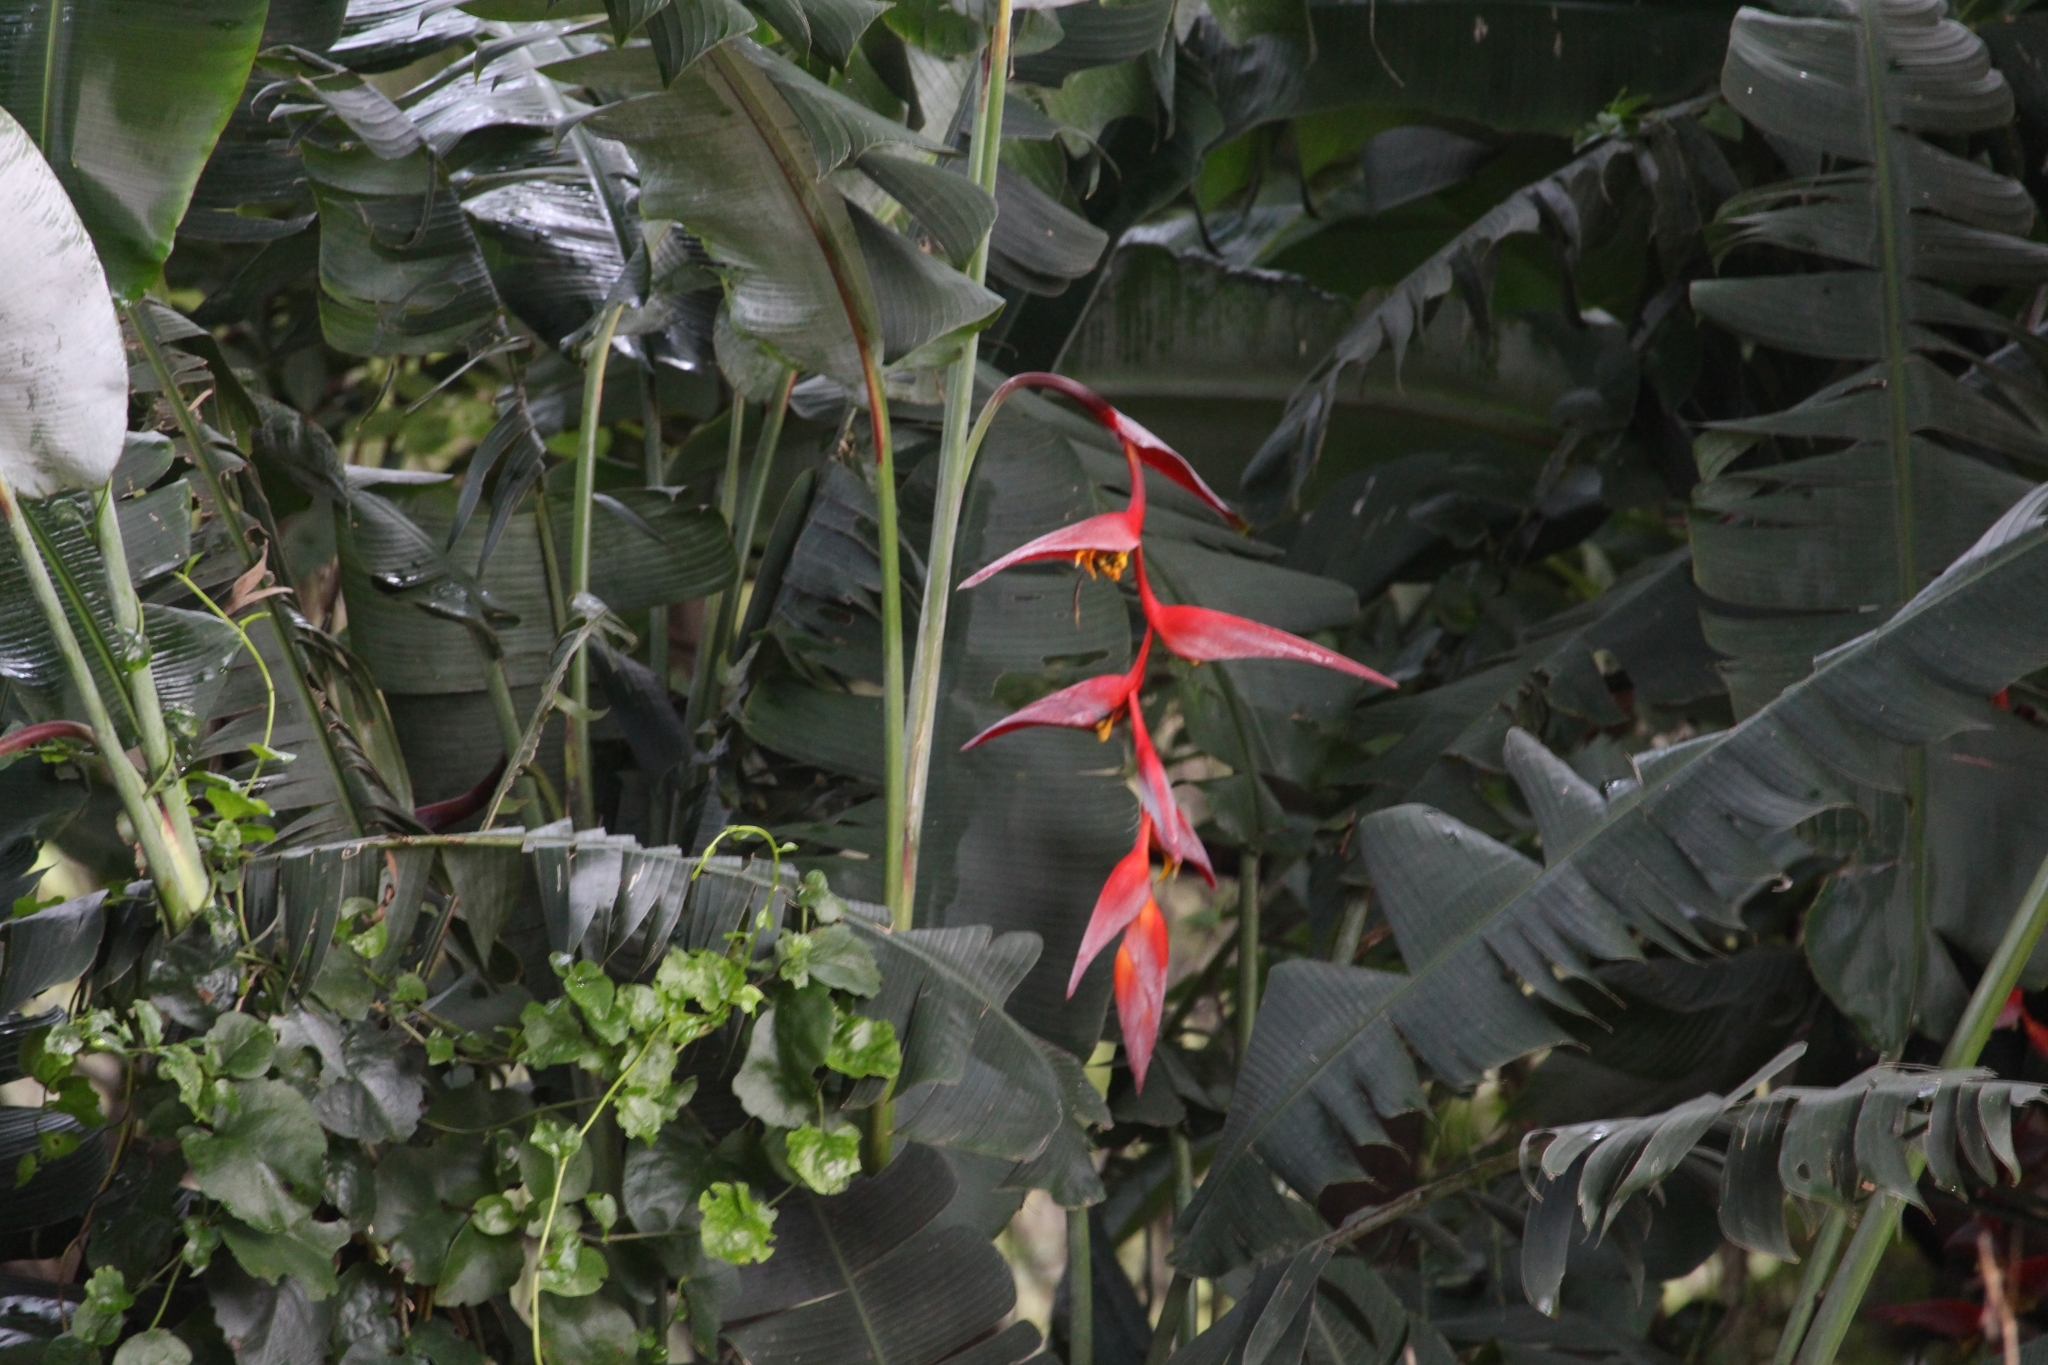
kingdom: Plantae
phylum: Tracheophyta
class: Liliopsida
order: Zingiberales
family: Heliconiaceae
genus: Heliconia
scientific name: Heliconia collinsiana
